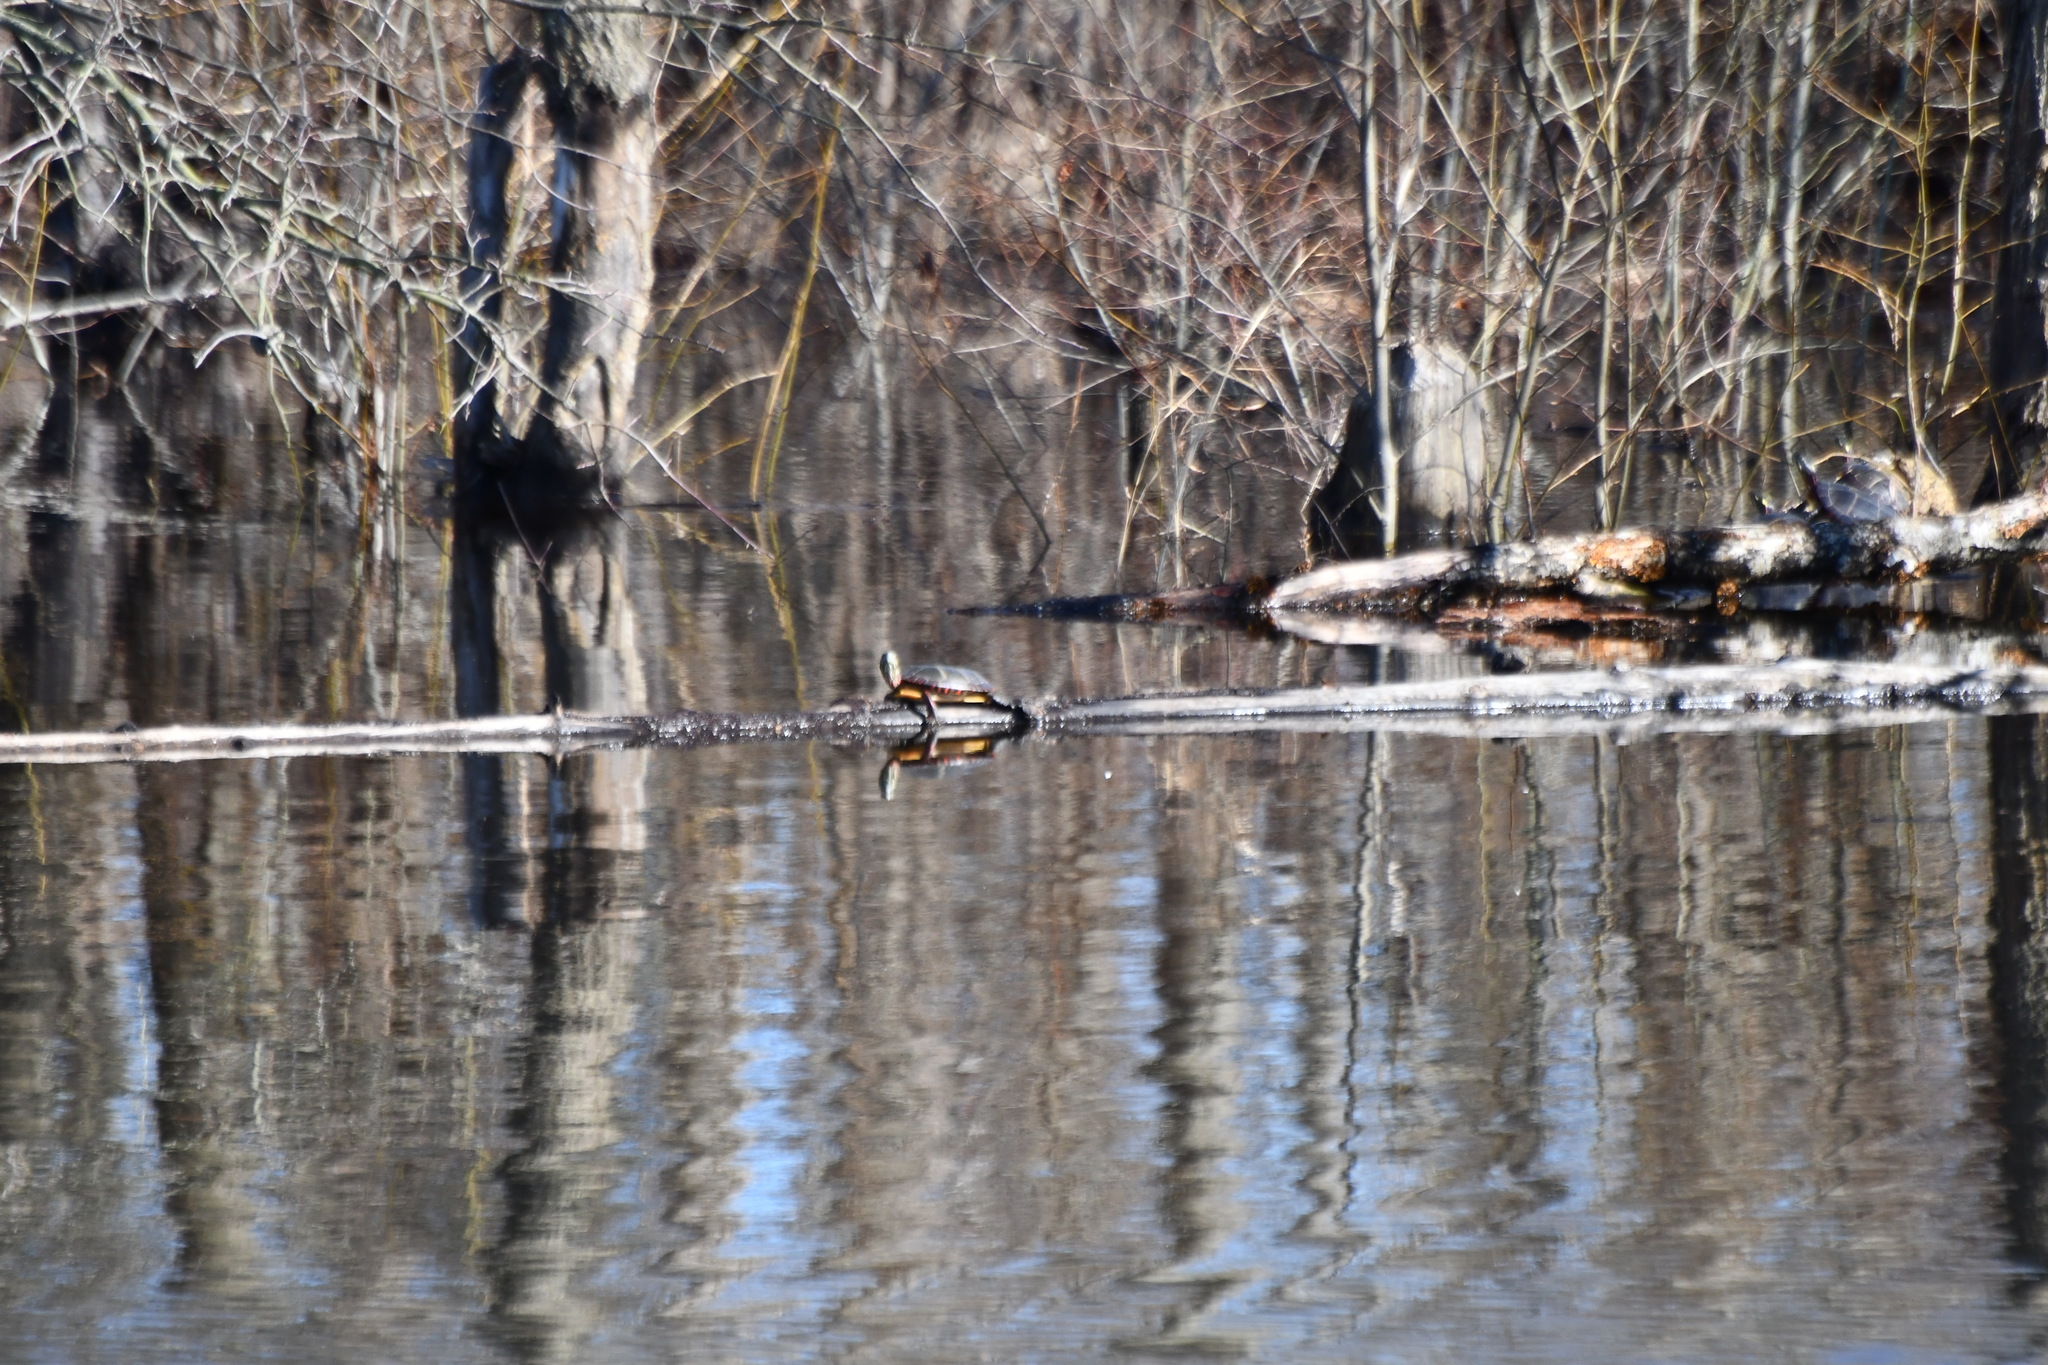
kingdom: Animalia
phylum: Chordata
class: Testudines
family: Emydidae
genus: Chrysemys
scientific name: Chrysemys picta
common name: Painted turtle
